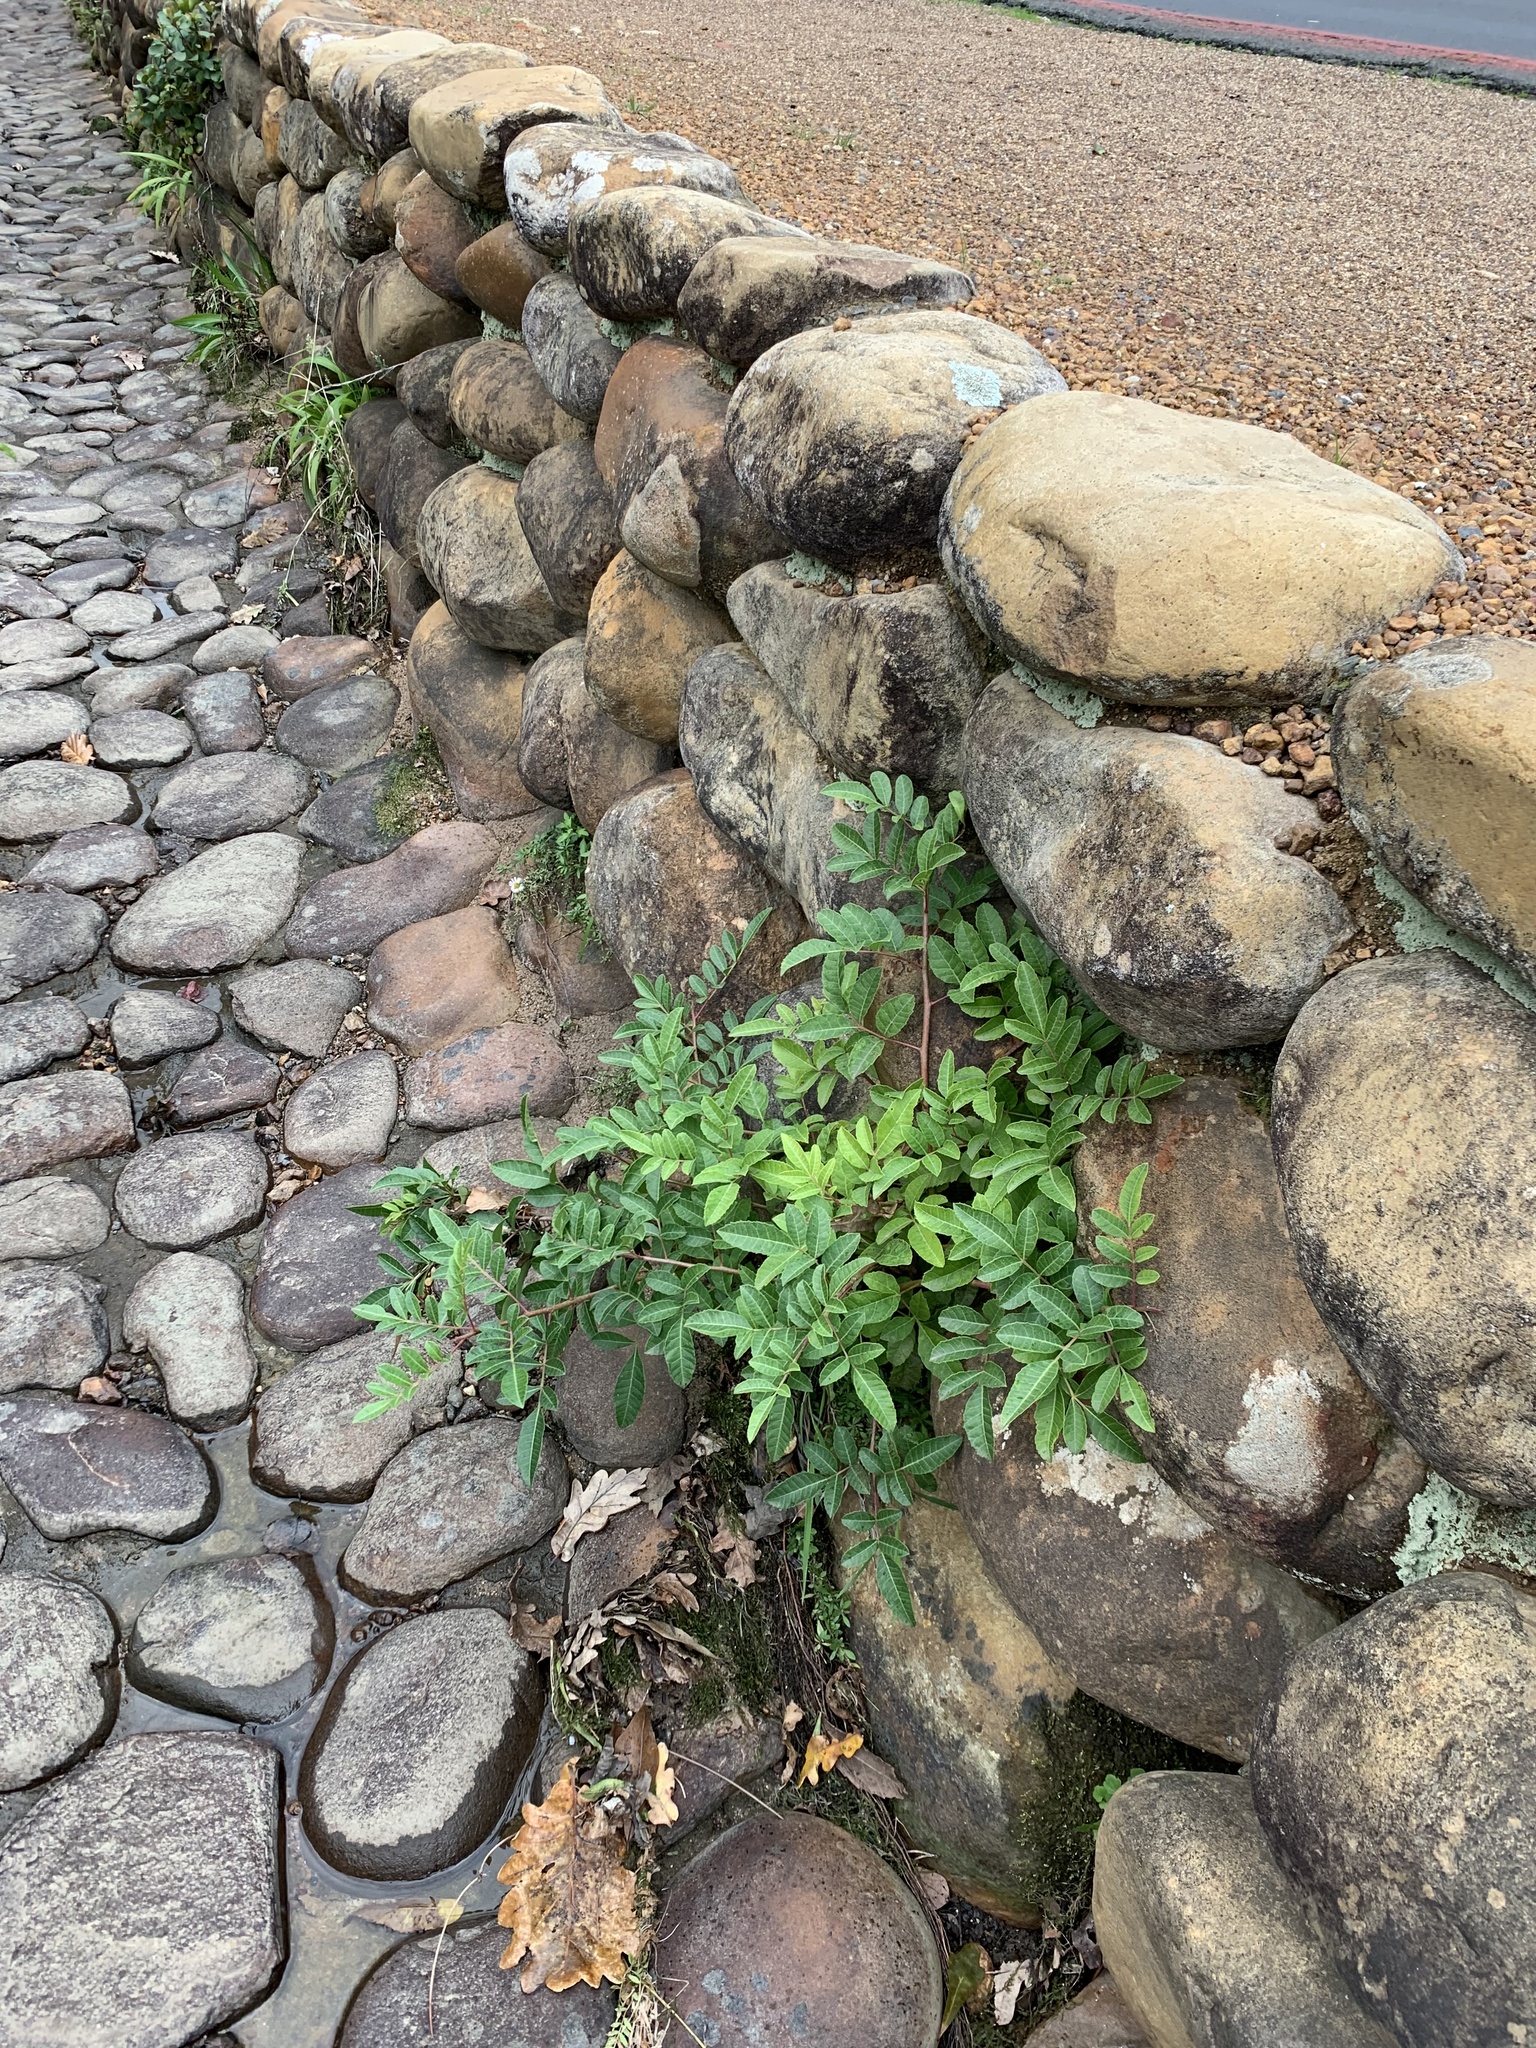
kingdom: Plantae
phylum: Tracheophyta
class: Magnoliopsida
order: Sapindales
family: Anacardiaceae
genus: Schinus
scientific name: Schinus terebinthifolia
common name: Brazilian peppertree
